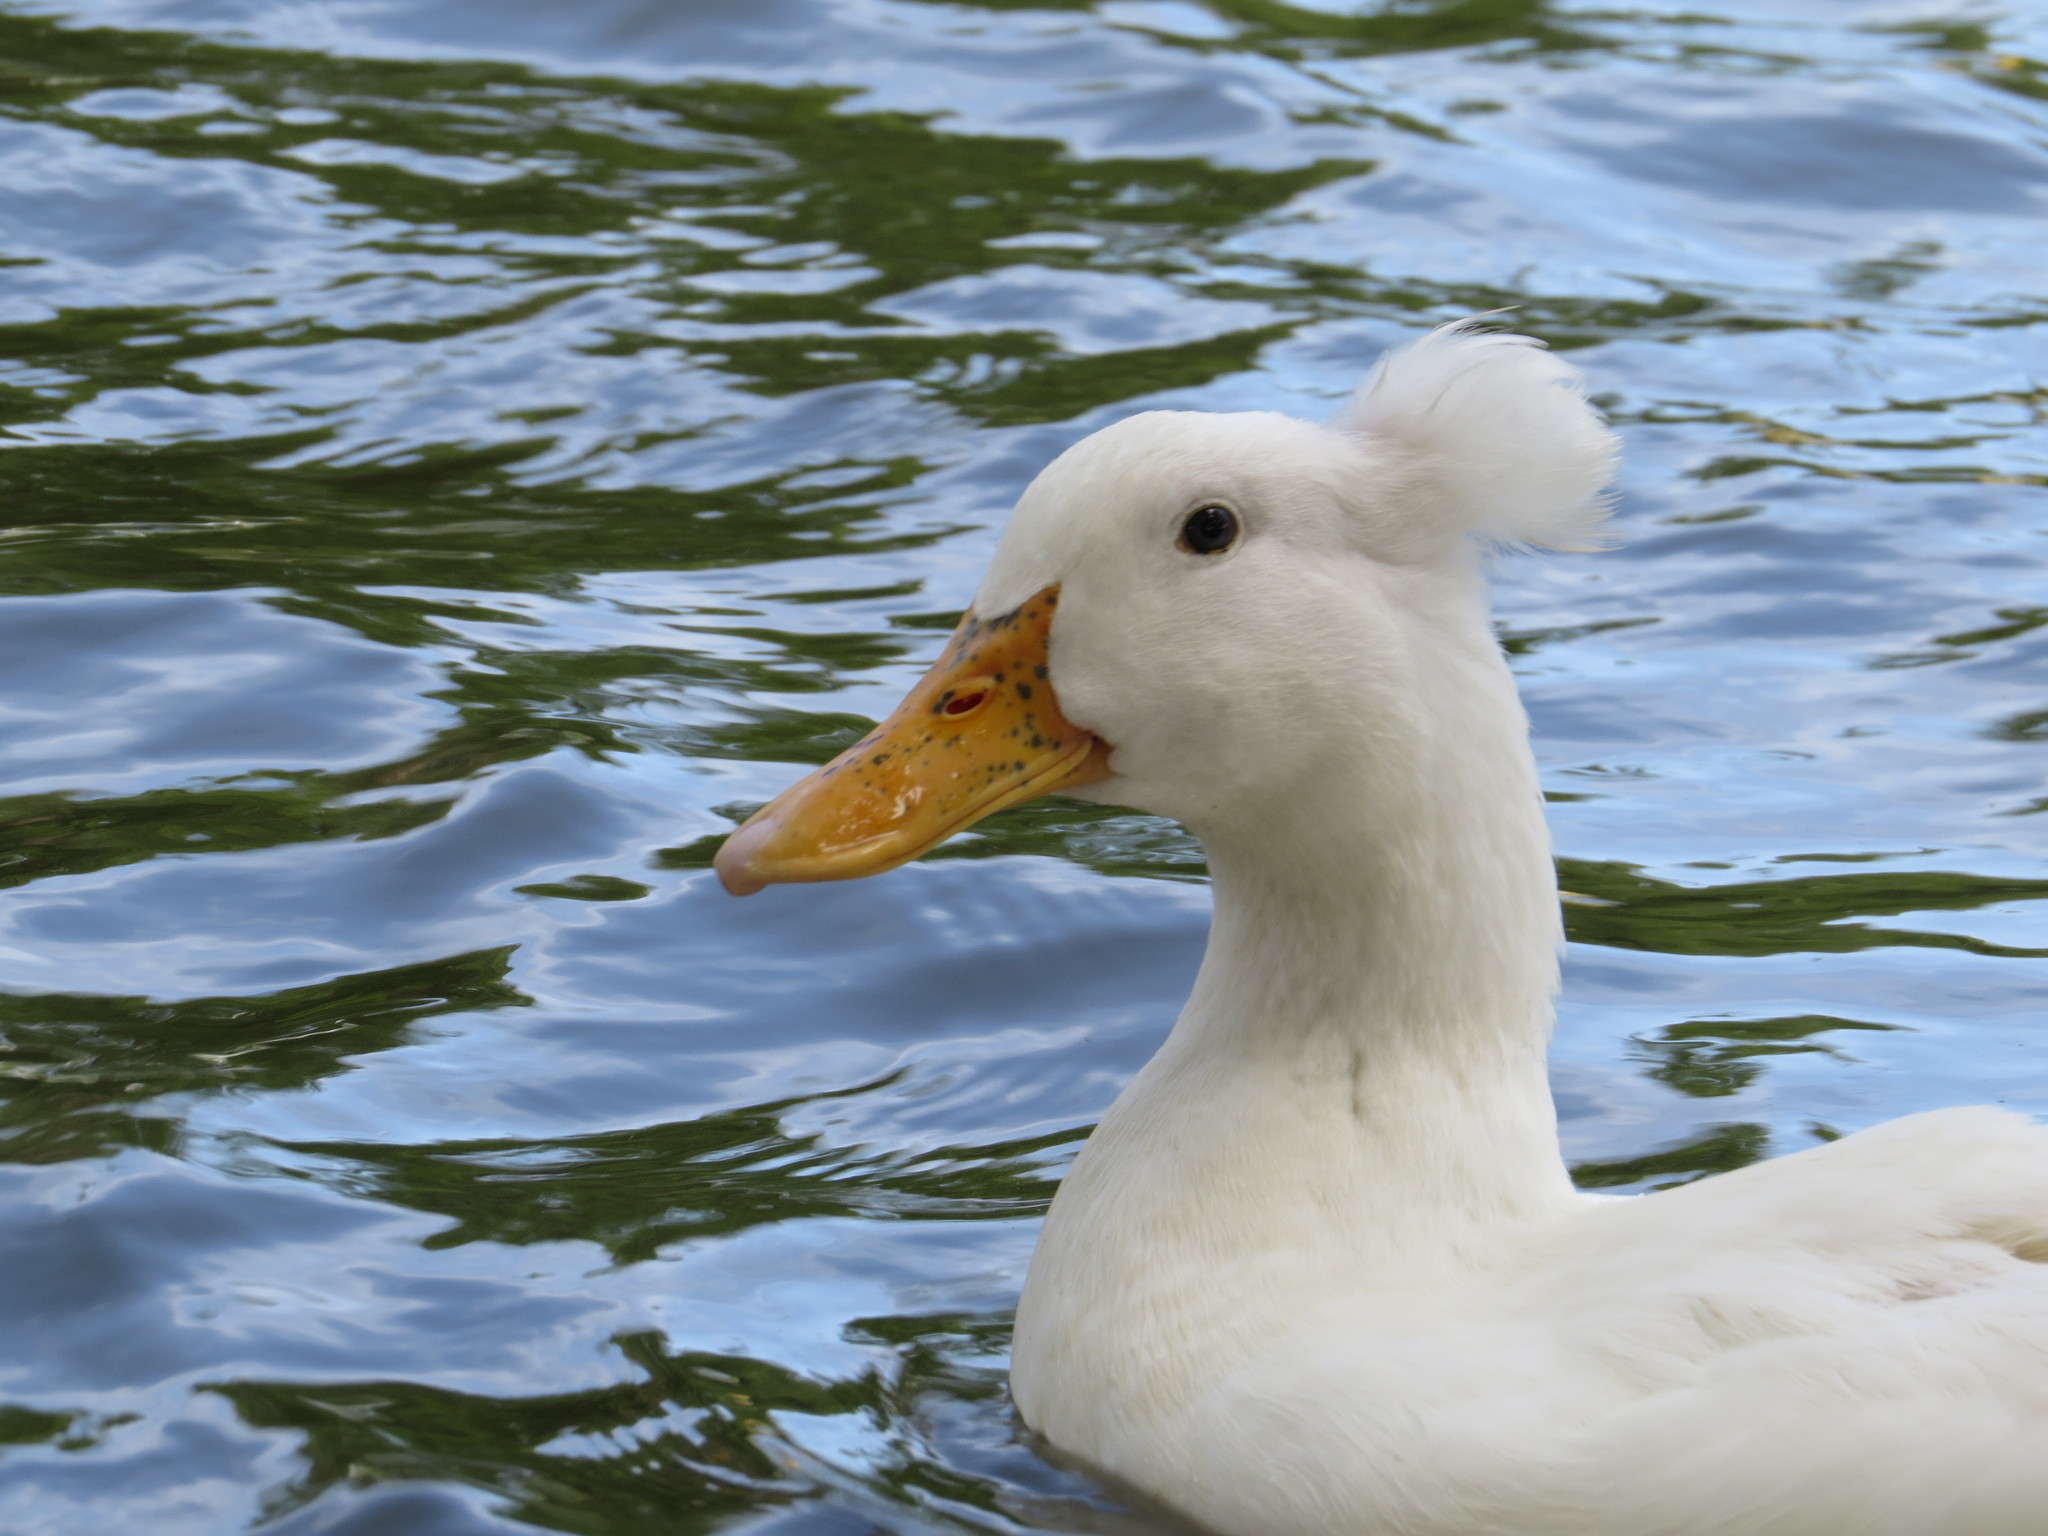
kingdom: Animalia
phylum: Chordata
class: Aves
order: Anseriformes
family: Anatidae
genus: Anas
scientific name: Anas platyrhynchos
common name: Mallard
